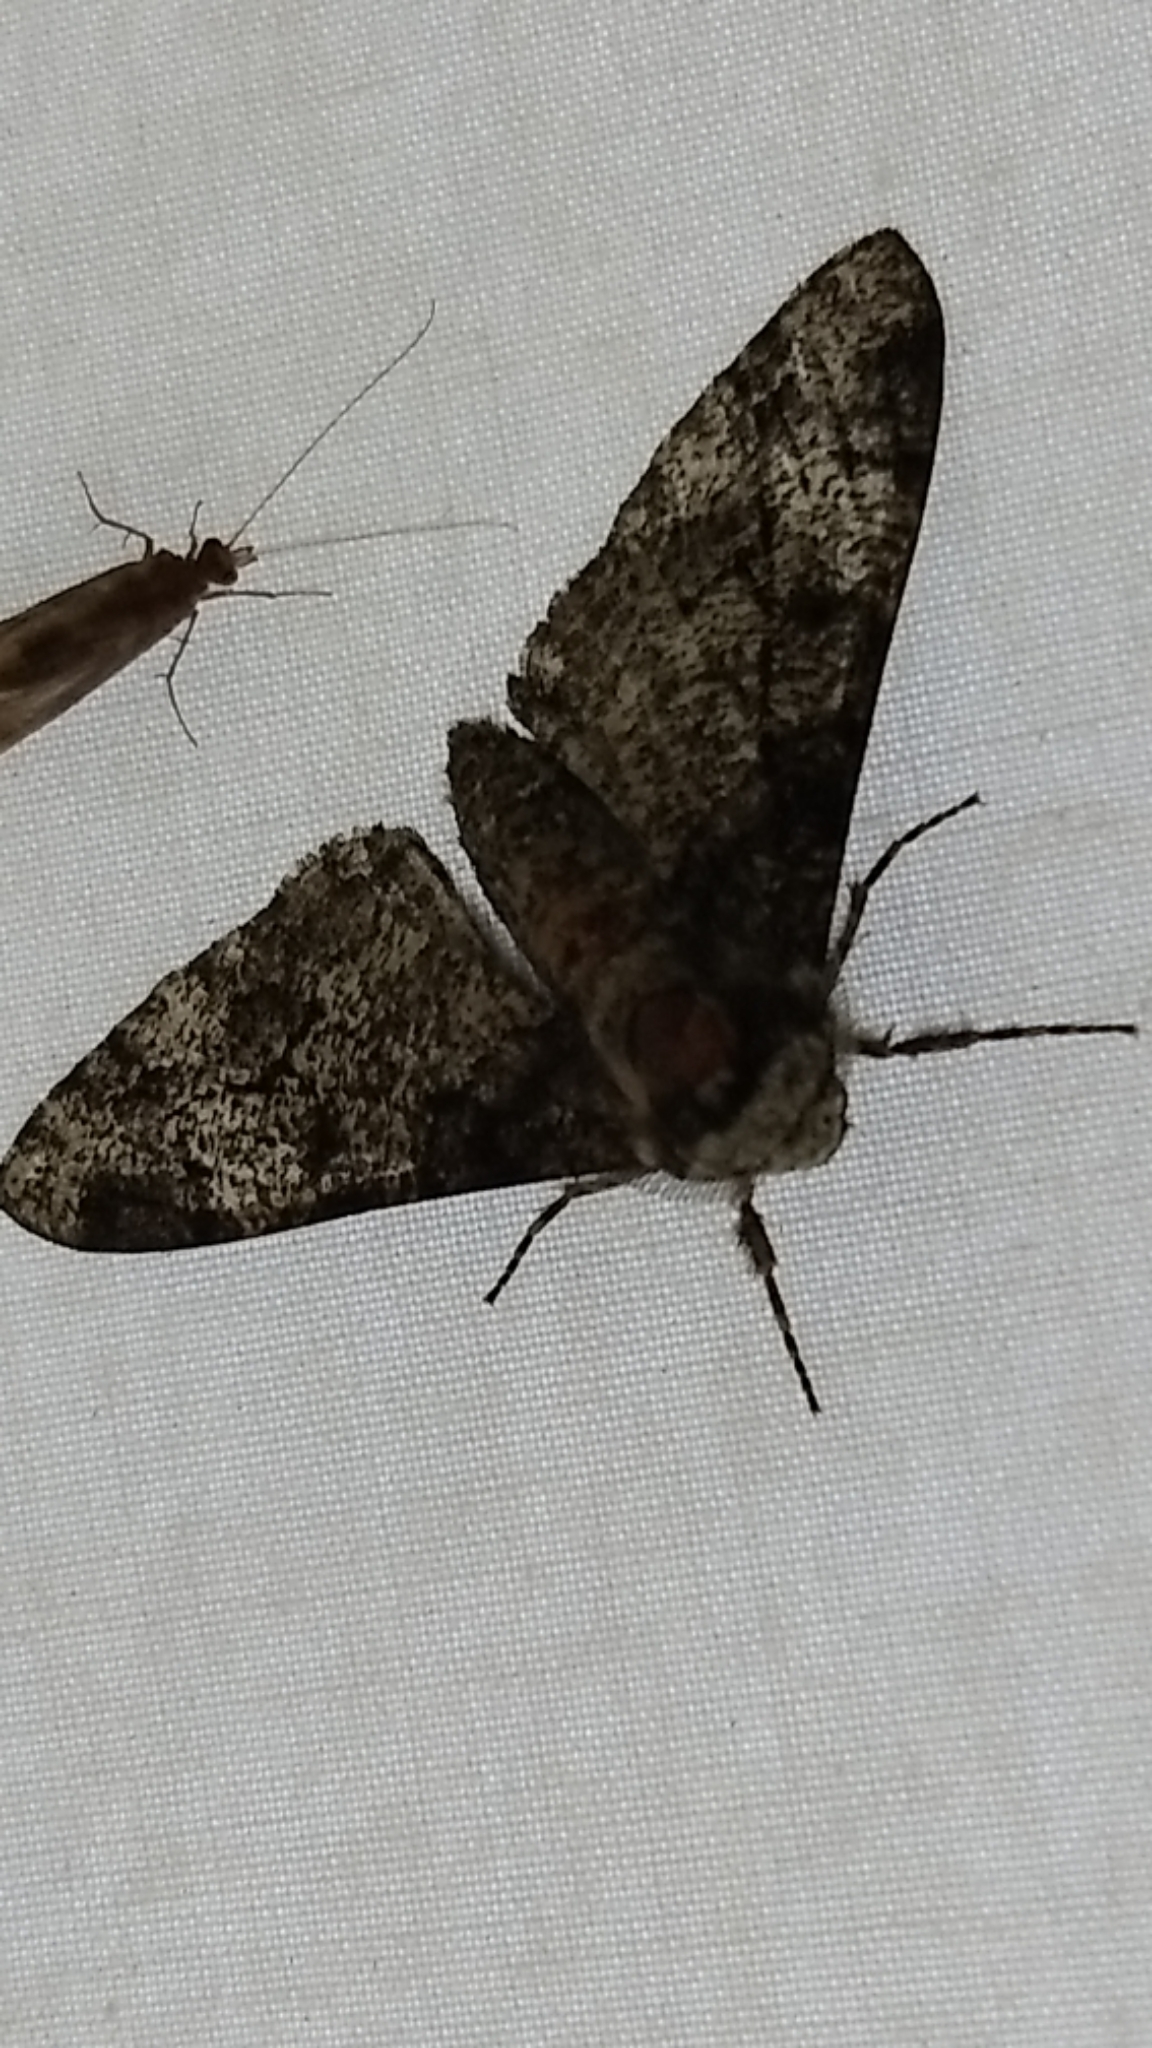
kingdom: Animalia
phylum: Arthropoda
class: Insecta
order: Lepidoptera
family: Geometridae
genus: Biston
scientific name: Biston betularia
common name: Peppered moth
